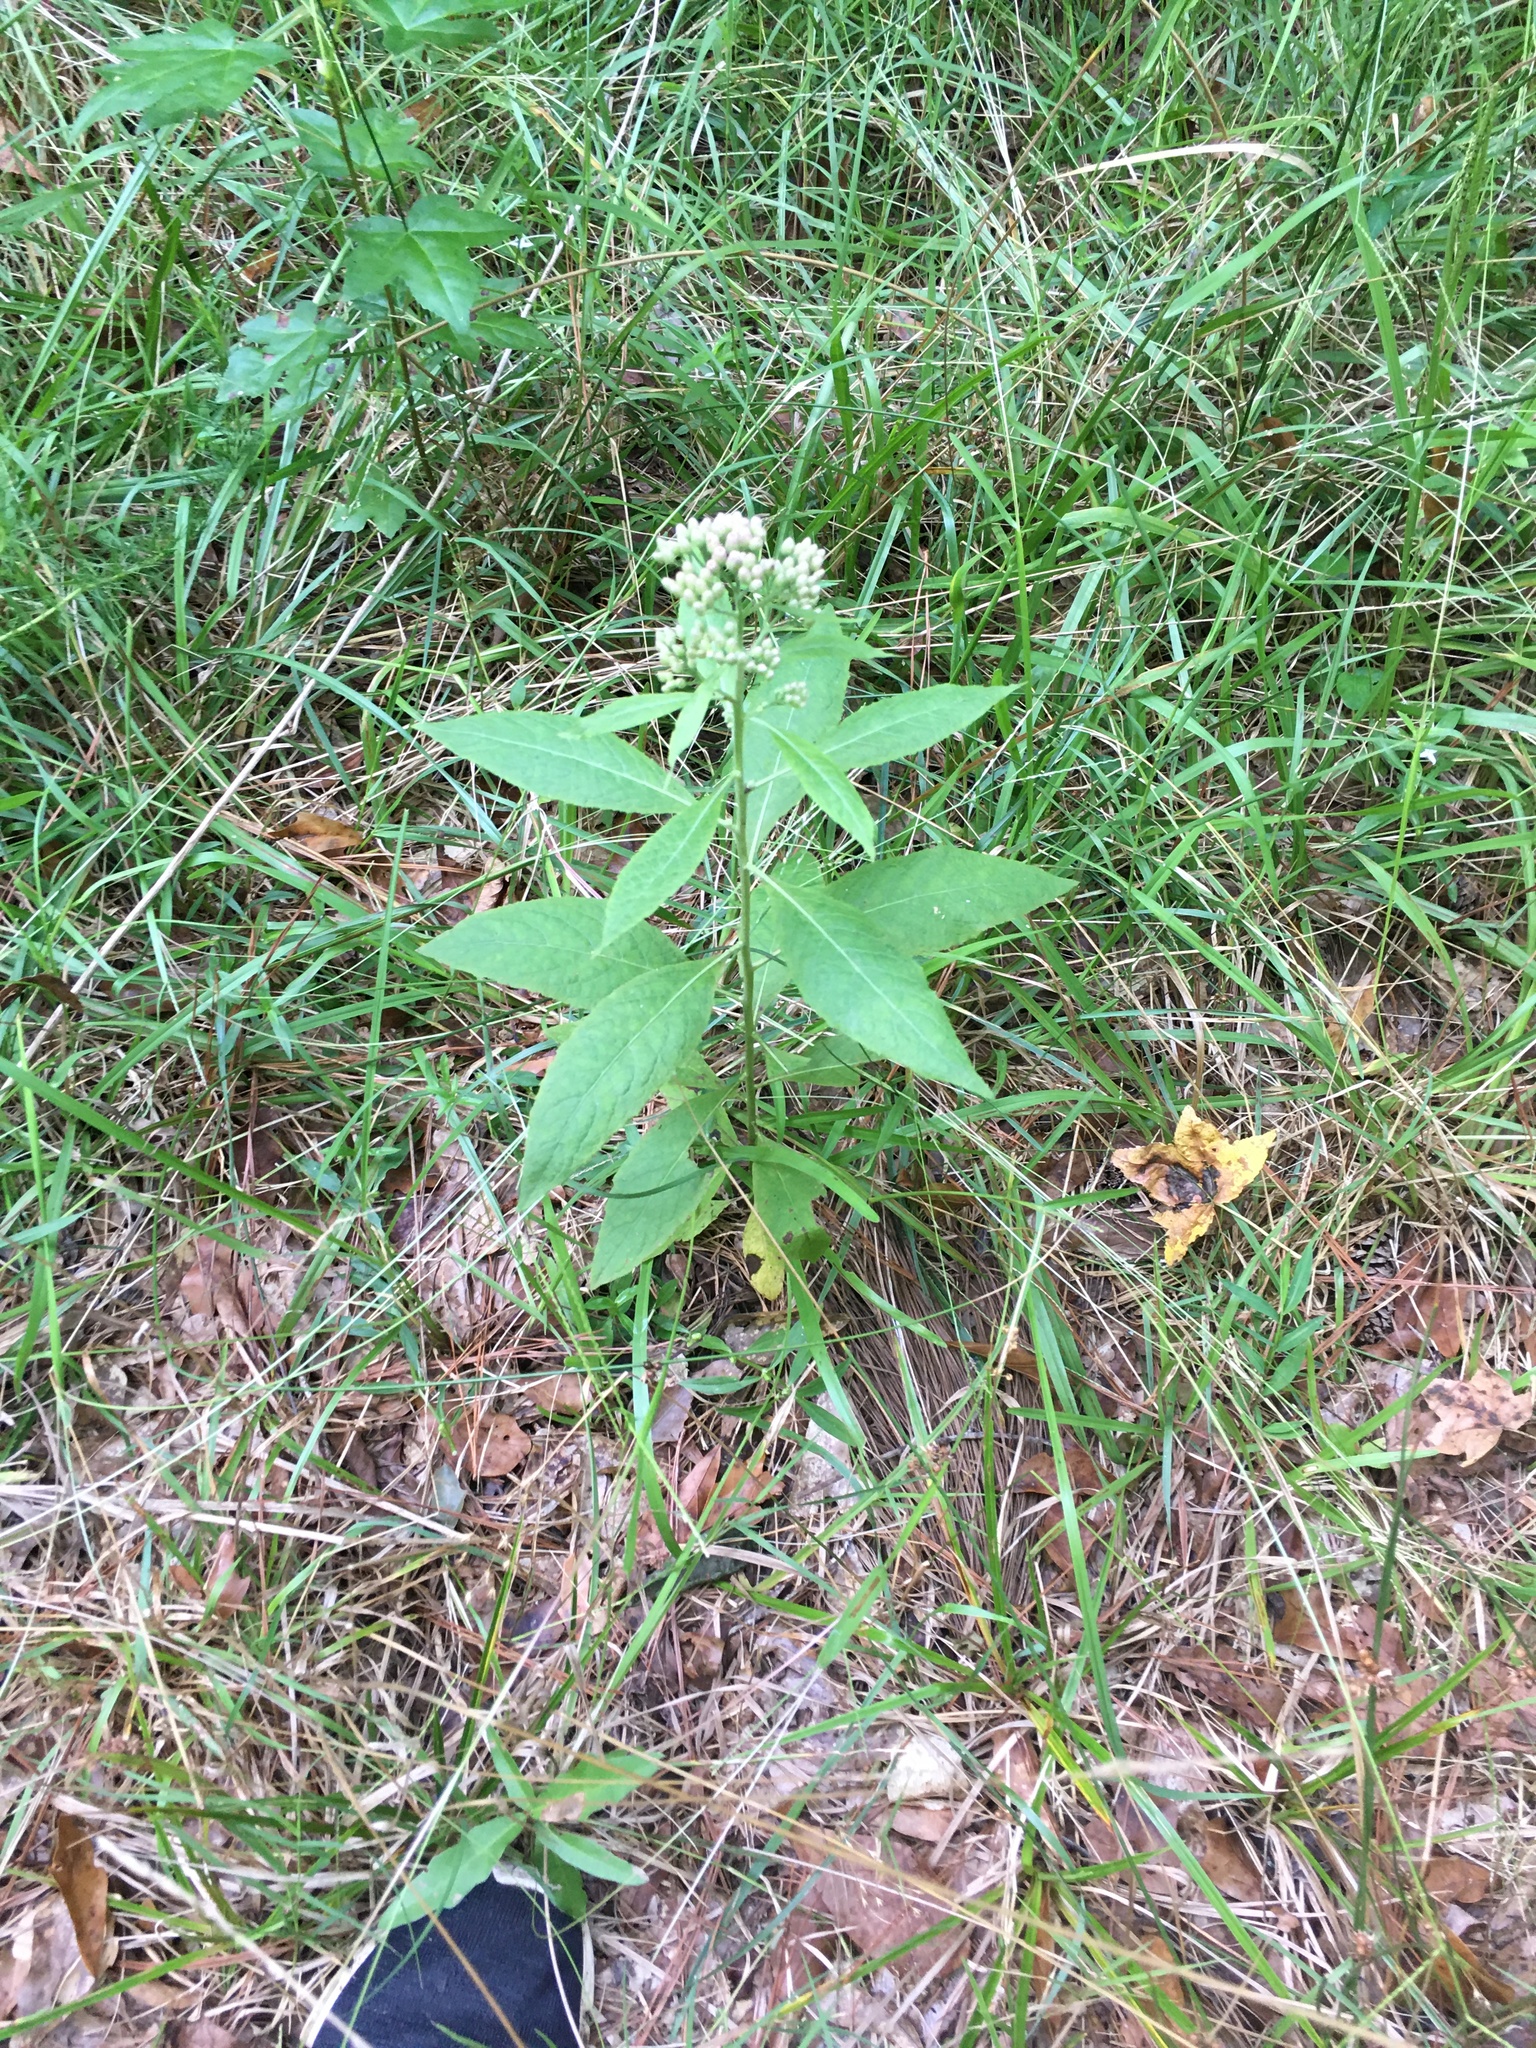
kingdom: Plantae
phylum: Tracheophyta
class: Magnoliopsida
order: Asterales
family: Asteraceae
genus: Pluchea
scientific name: Pluchea camphorata
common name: Camphor pluchea
